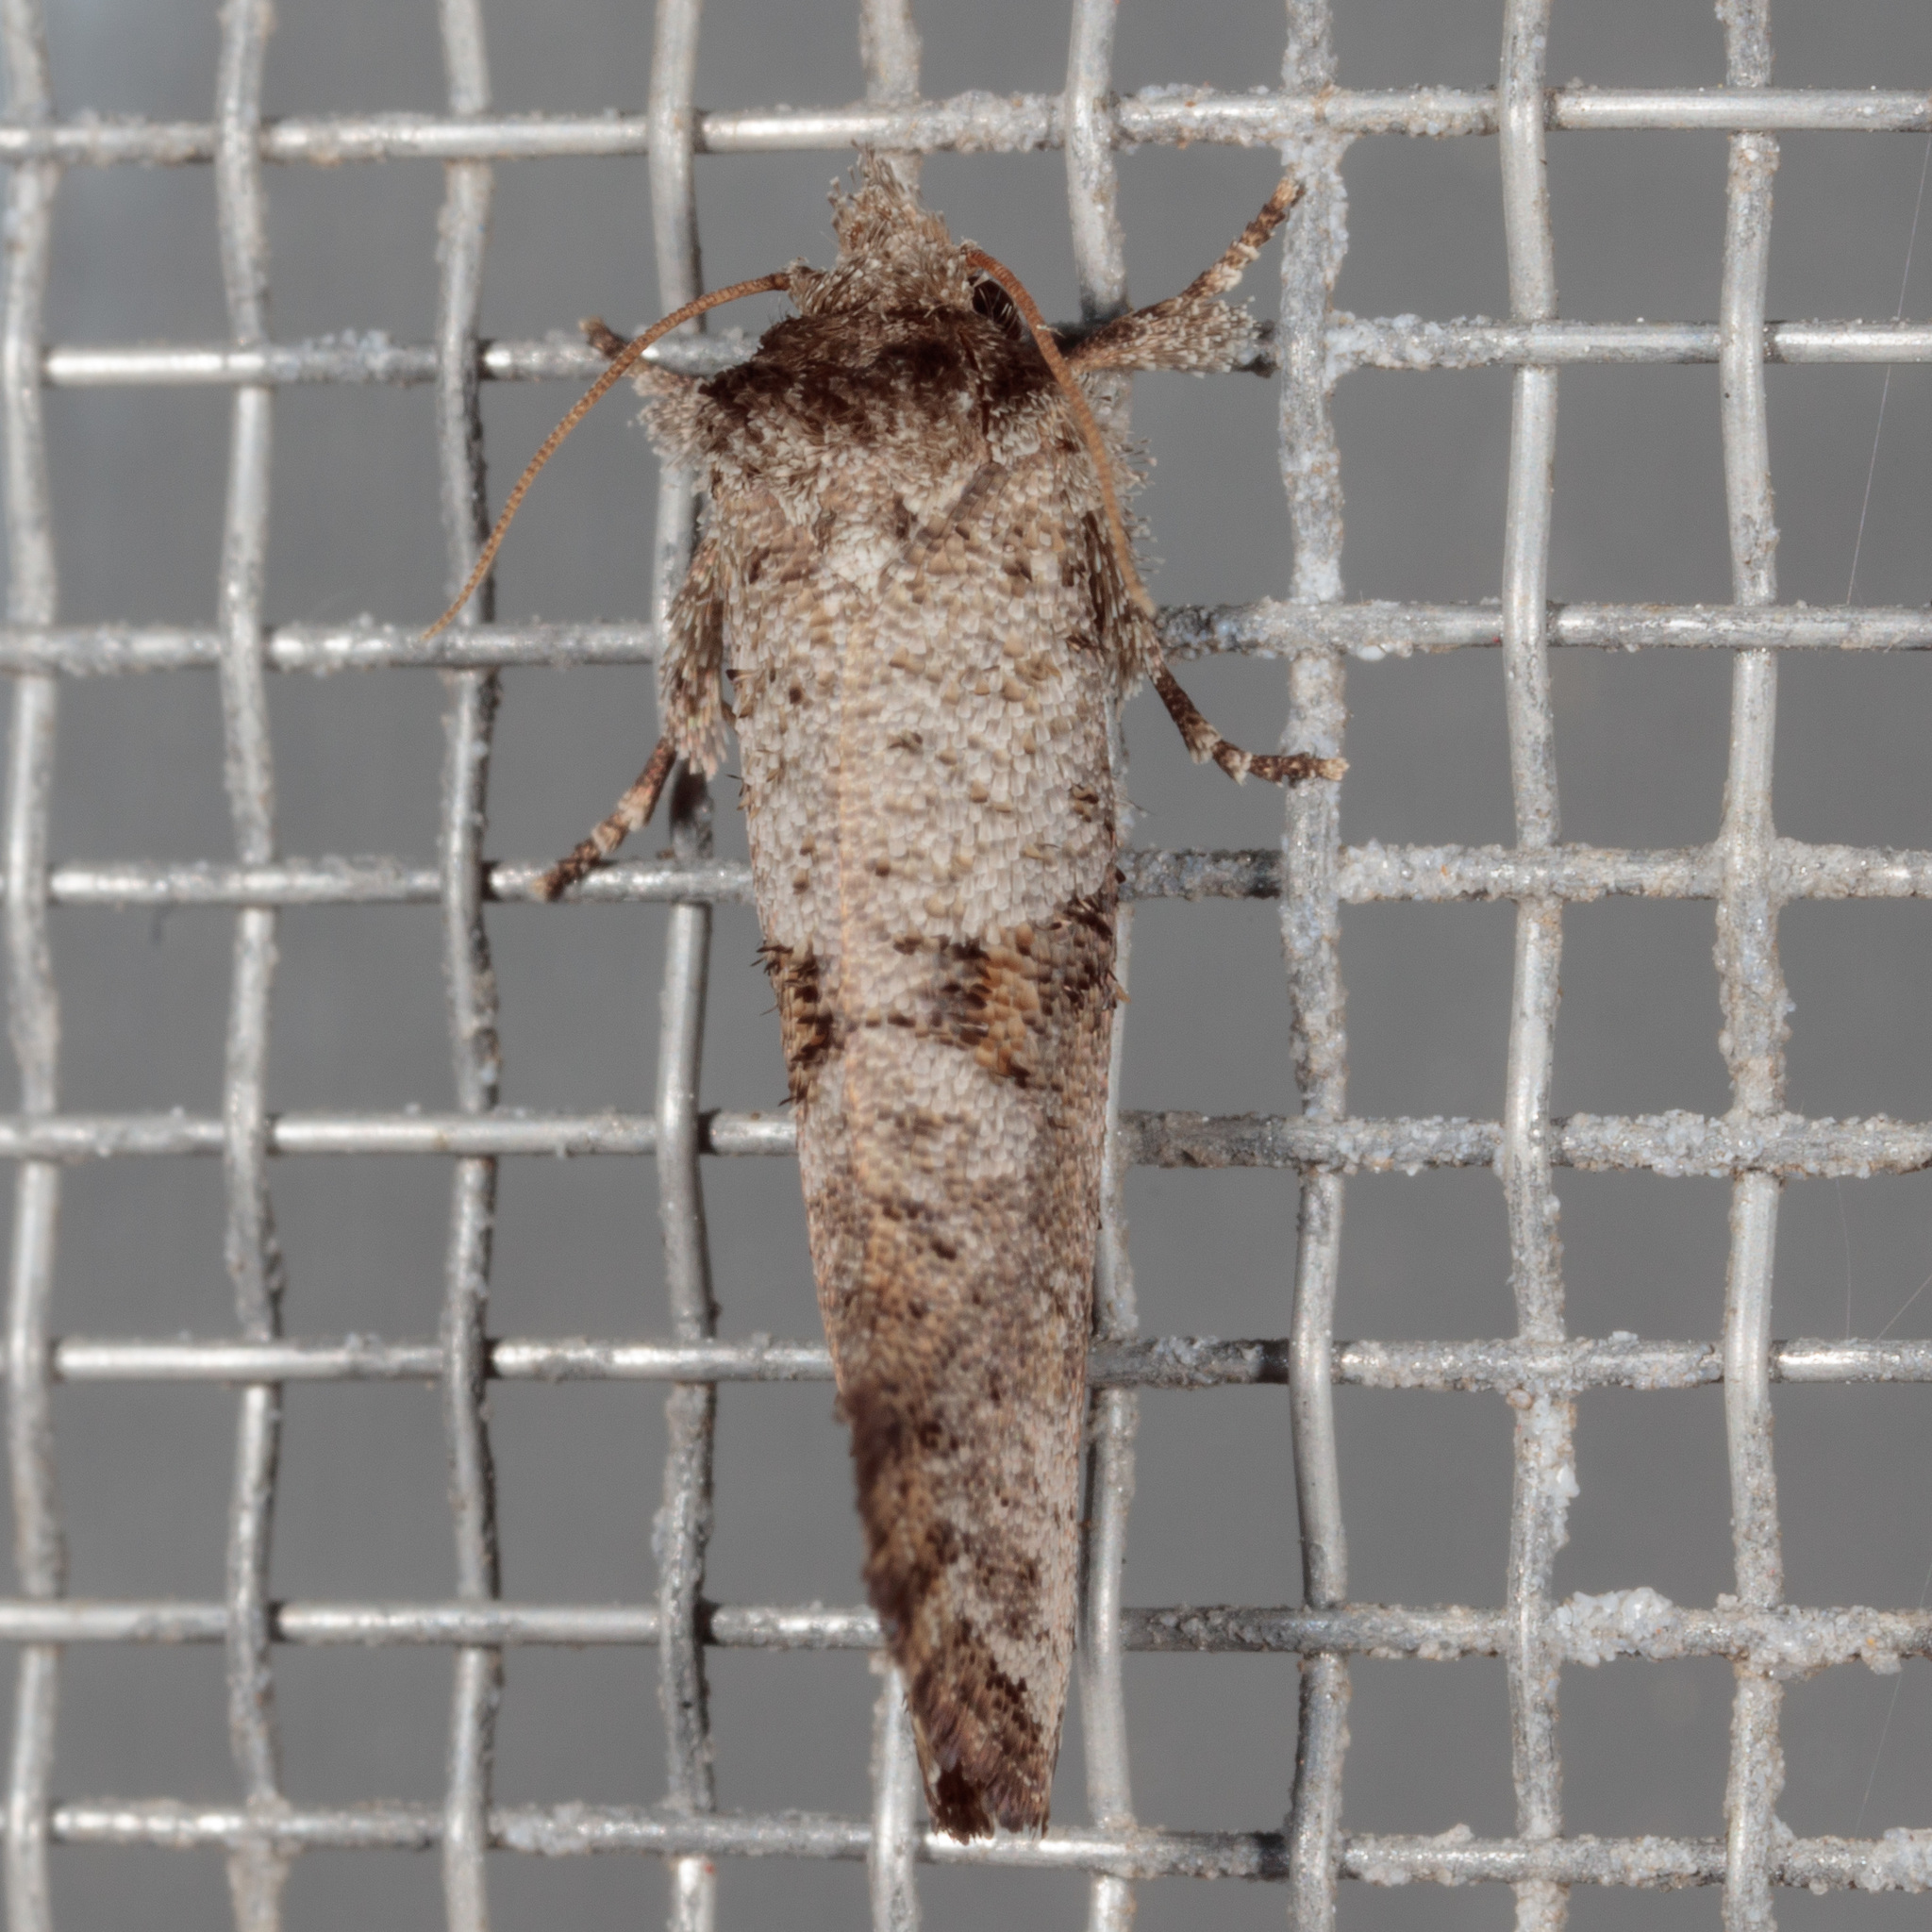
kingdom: Animalia
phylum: Arthropoda
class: Insecta
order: Lepidoptera
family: Tineidae
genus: Acrolophus
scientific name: Acrolophus piger
